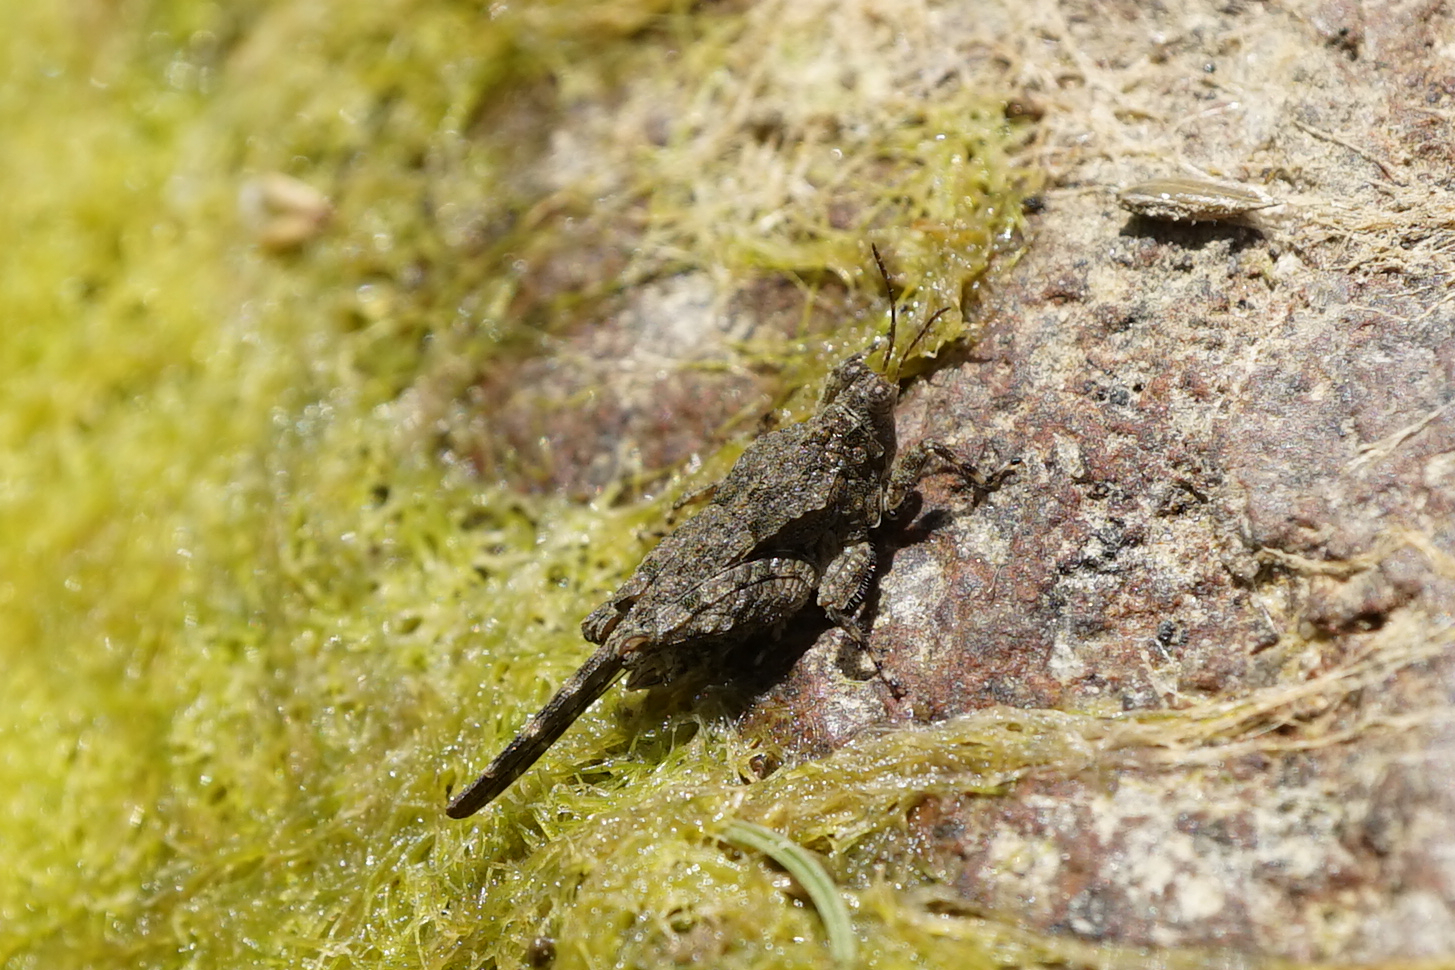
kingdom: Animalia
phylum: Arthropoda
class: Insecta
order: Orthoptera
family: Tetrigidae
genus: Ergatettix
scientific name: Ergatettix dorsifer
